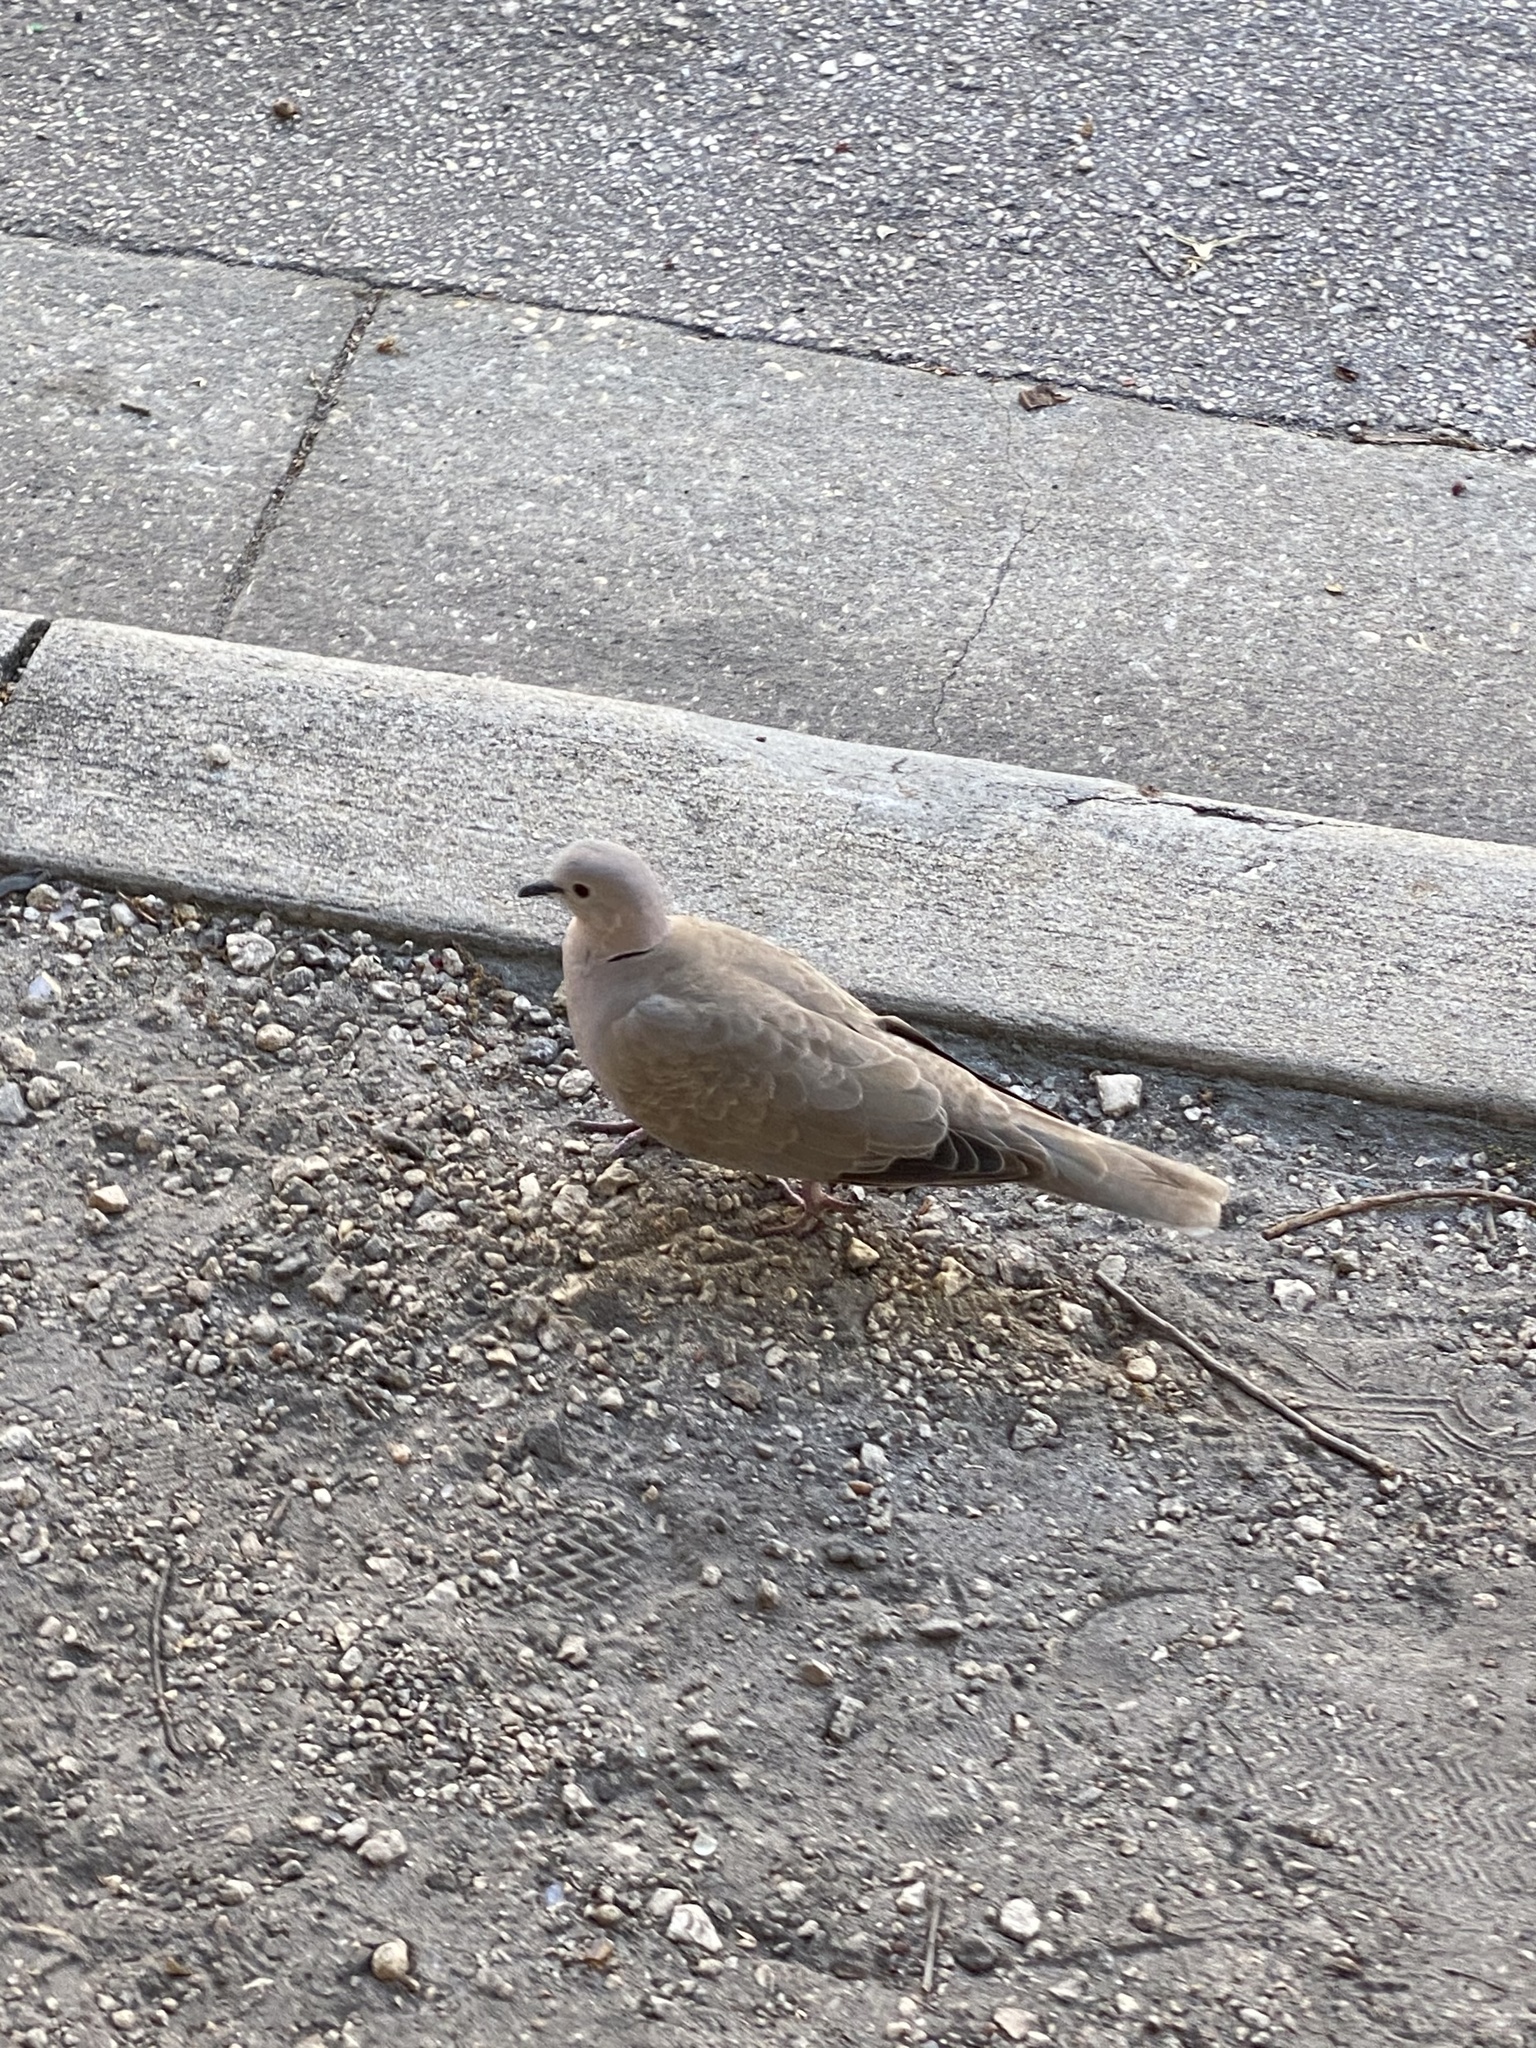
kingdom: Animalia
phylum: Chordata
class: Aves
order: Columbiformes
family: Columbidae
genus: Streptopelia
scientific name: Streptopelia decaocto
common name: Eurasian collared dove
